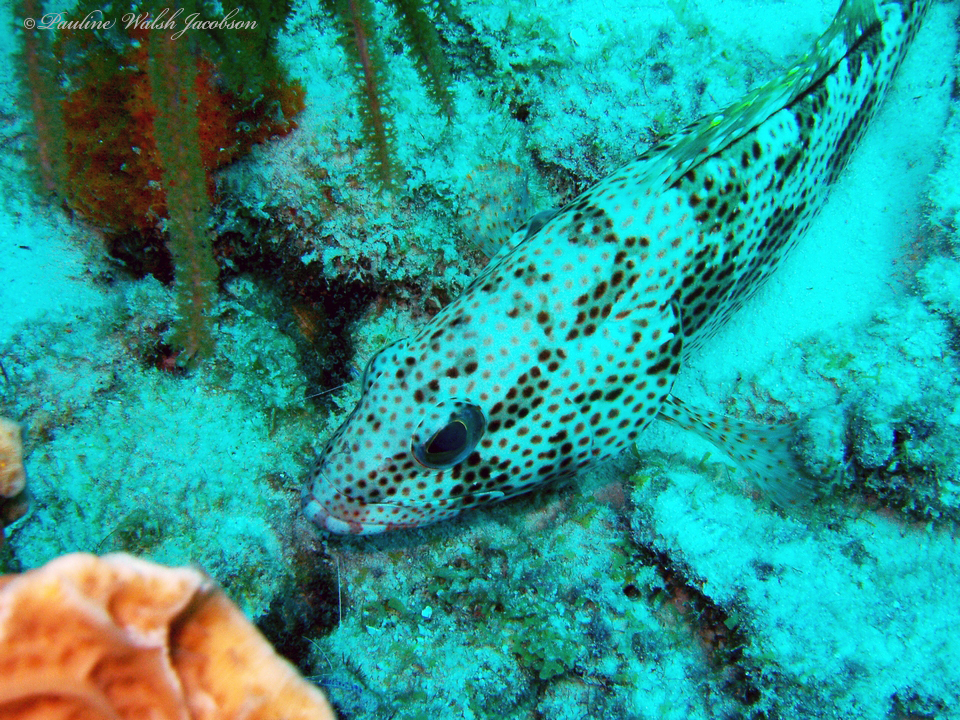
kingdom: Animalia
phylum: Chordata
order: Perciformes
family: Serranidae
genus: Epinephelus
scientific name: Epinephelus guttatus
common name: Red hind
